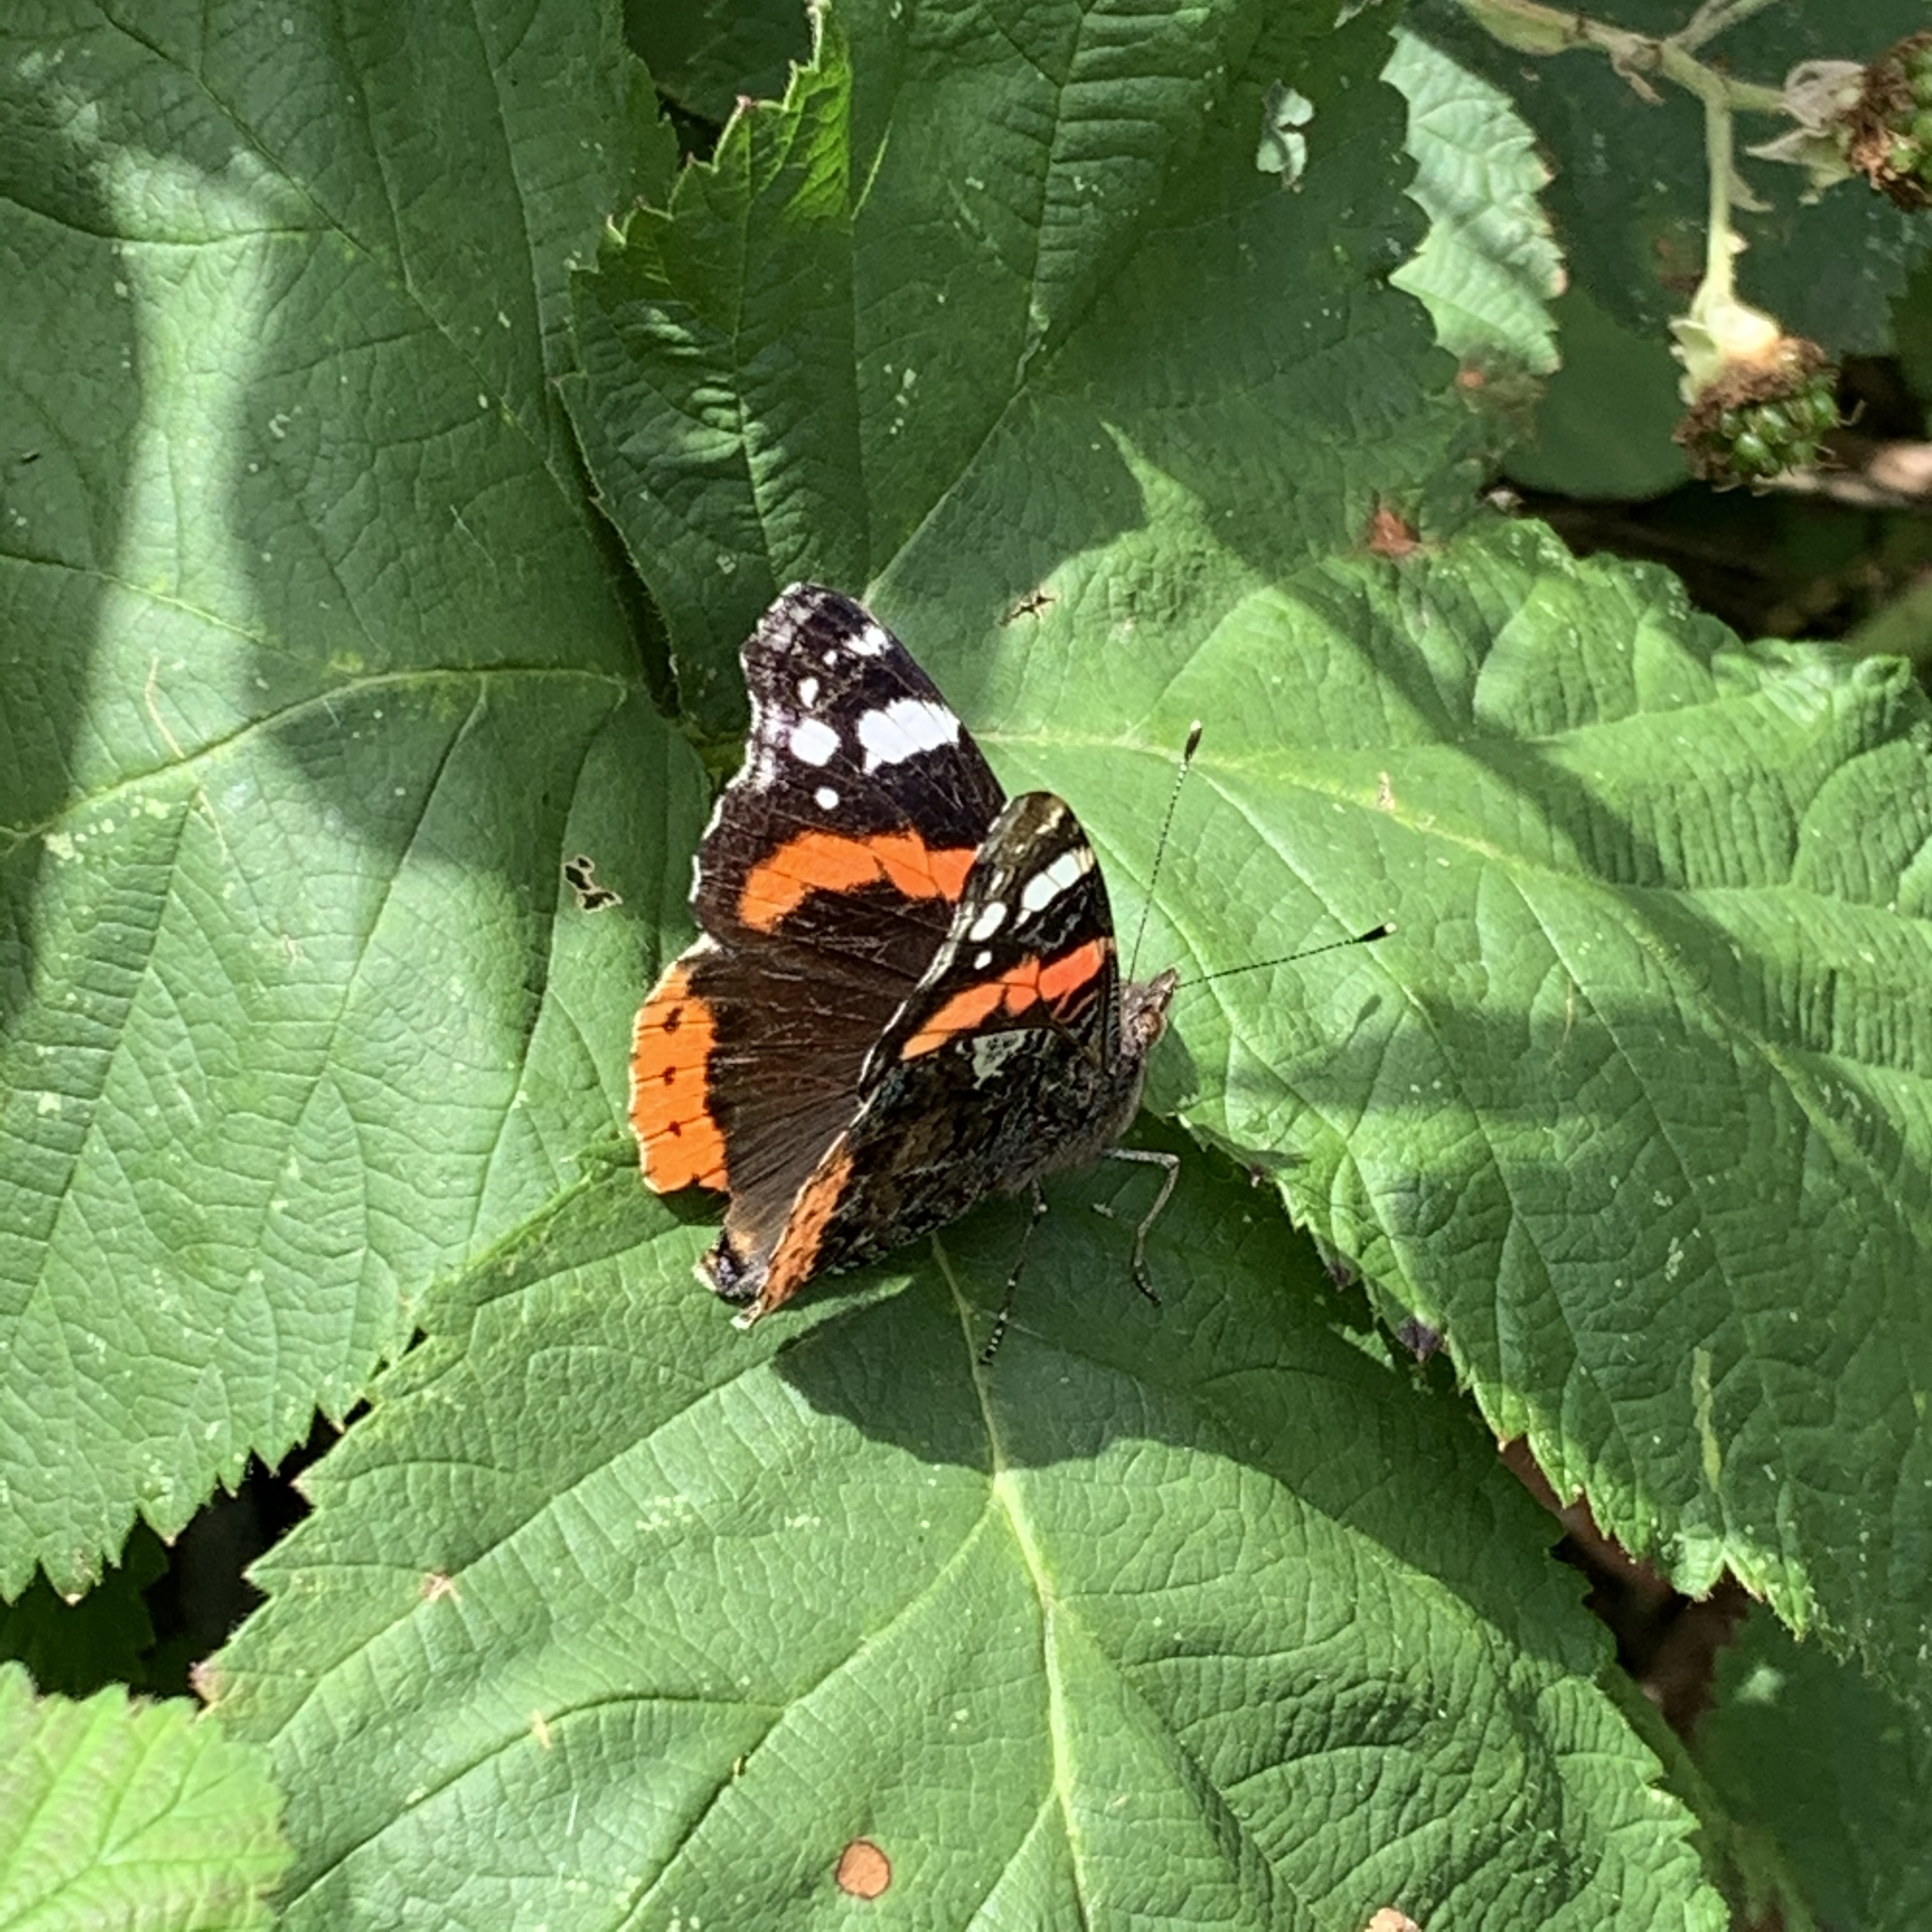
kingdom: Animalia
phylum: Arthropoda
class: Insecta
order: Lepidoptera
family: Nymphalidae
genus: Vanessa
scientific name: Vanessa atalanta
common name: Red admiral
